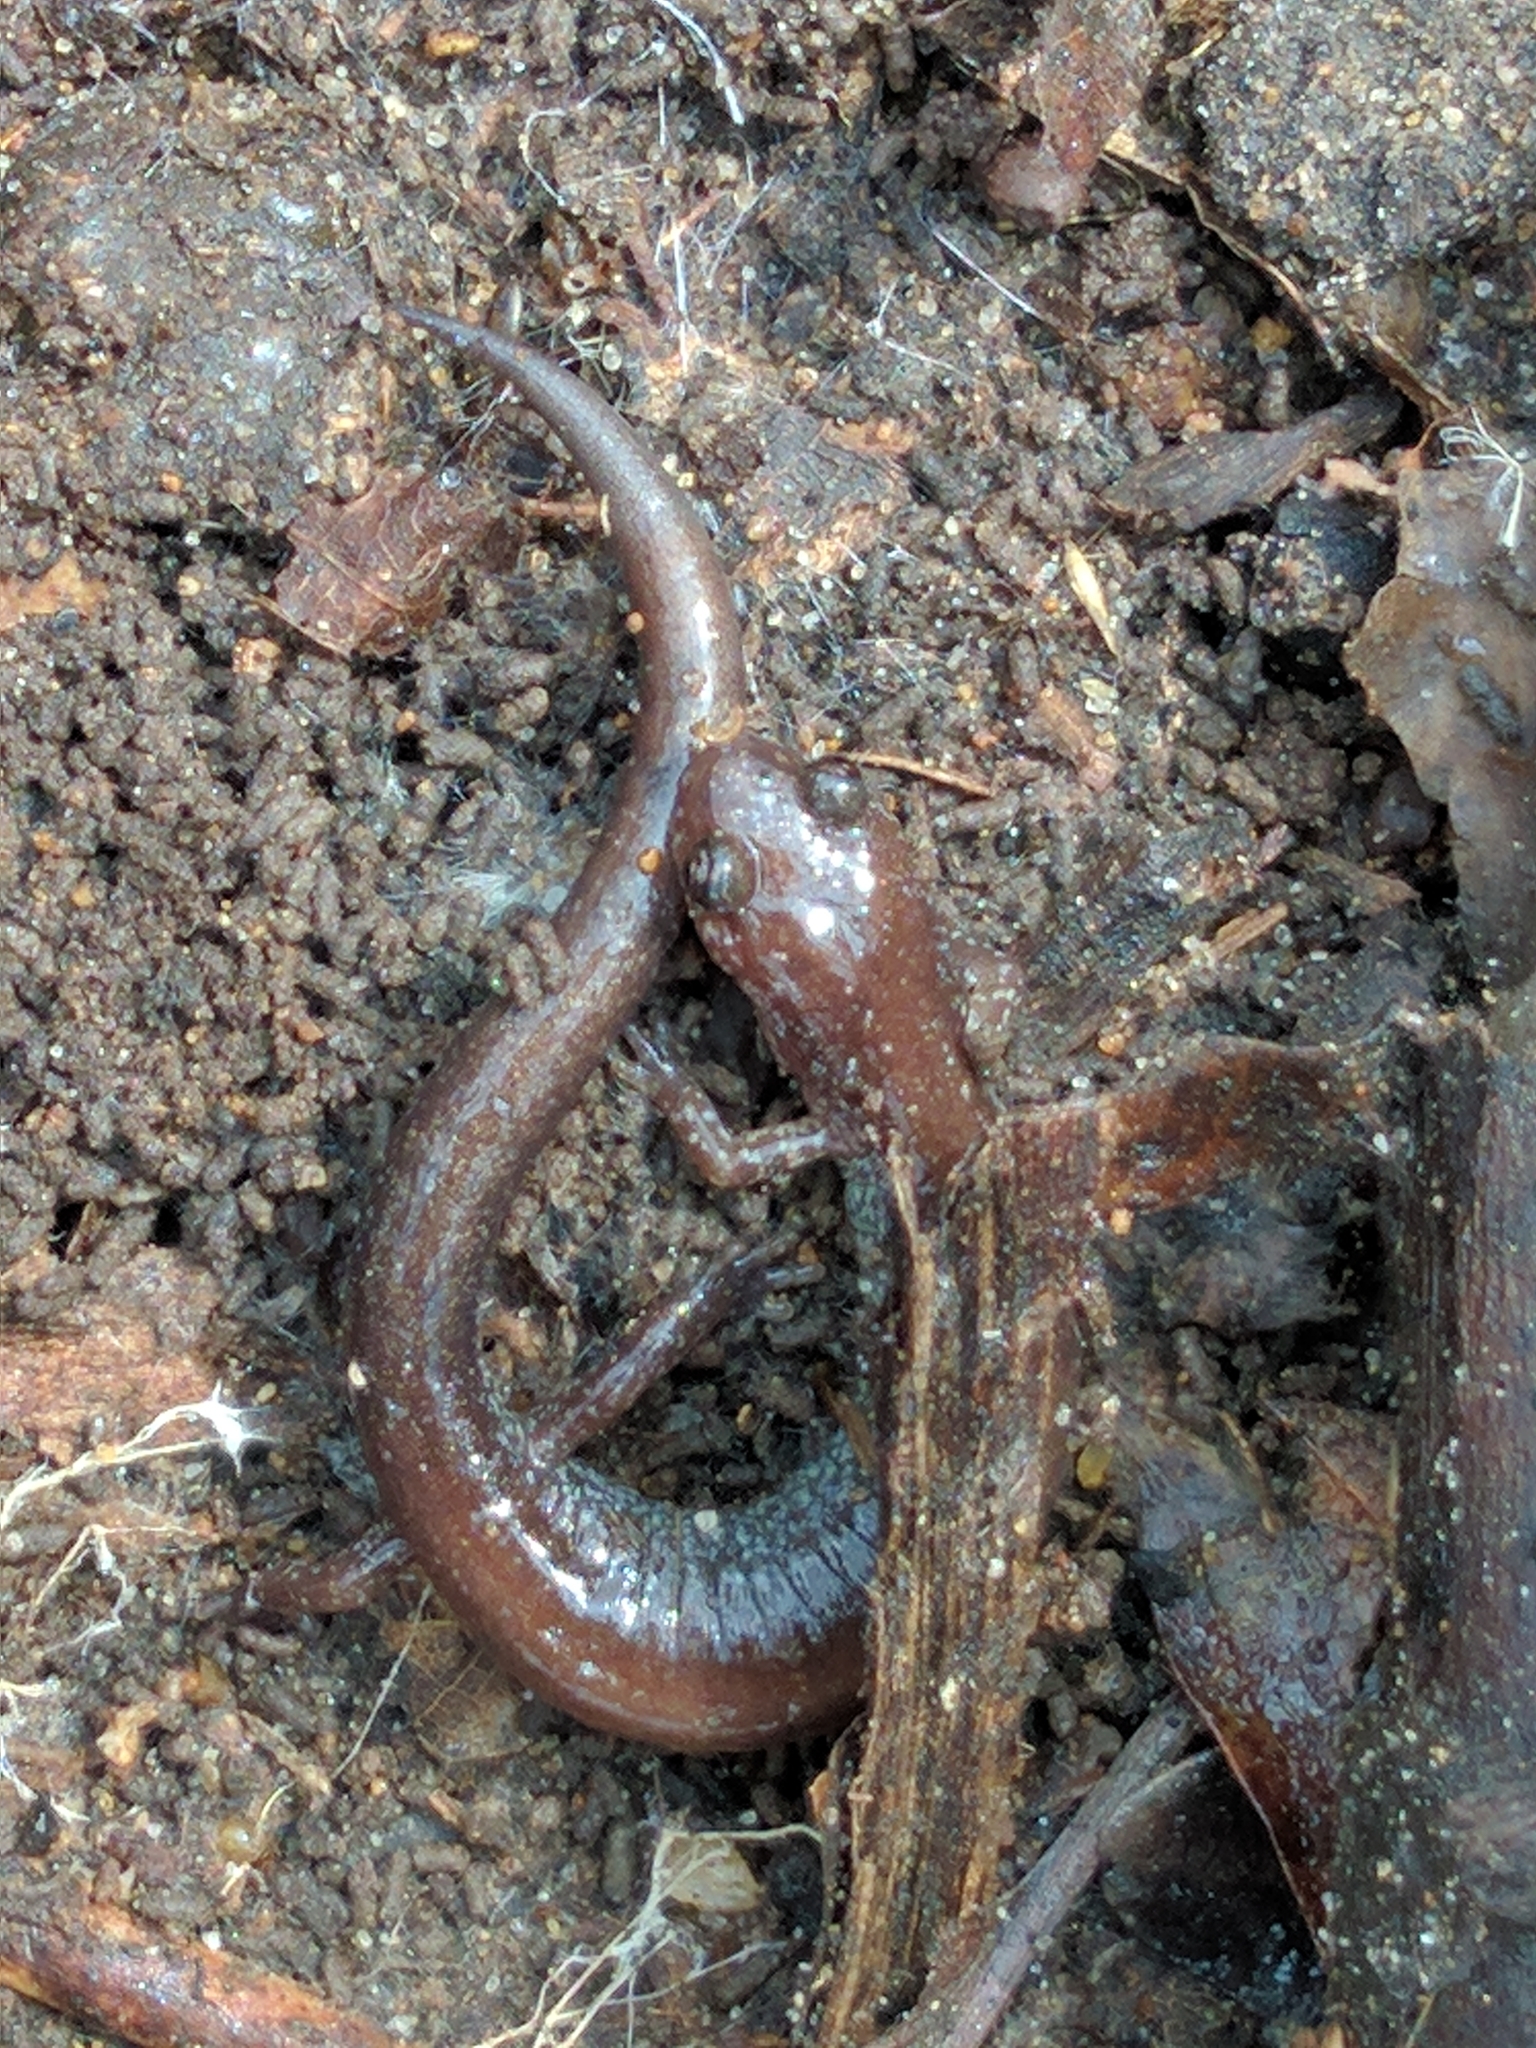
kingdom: Animalia
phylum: Chordata
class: Amphibia
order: Caudata
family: Plethodontidae
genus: Plethodon
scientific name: Plethodon cinereus
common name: Redback salamander
